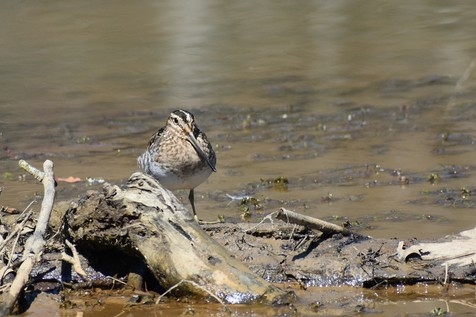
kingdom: Animalia
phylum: Chordata
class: Aves
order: Charadriiformes
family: Scolopacidae
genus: Gallinago
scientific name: Gallinago delicata
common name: Wilson's snipe
